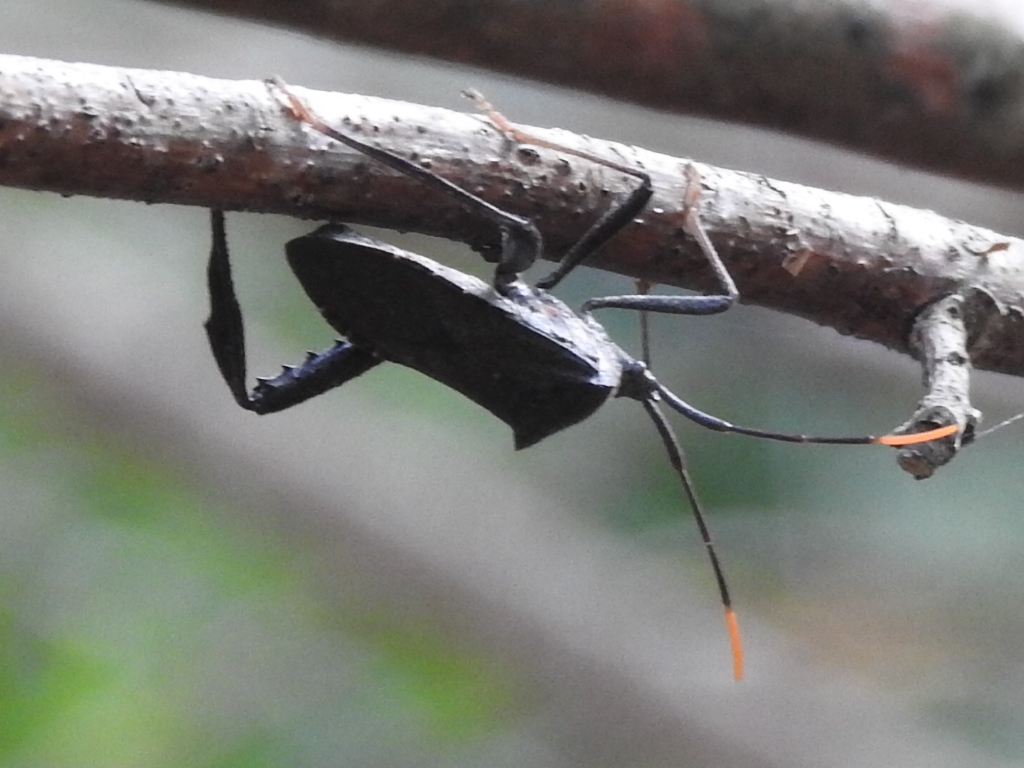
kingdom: Animalia
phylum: Arthropoda
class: Insecta
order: Hemiptera
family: Coreidae
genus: Acanthocephala
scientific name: Acanthocephala terminalis
